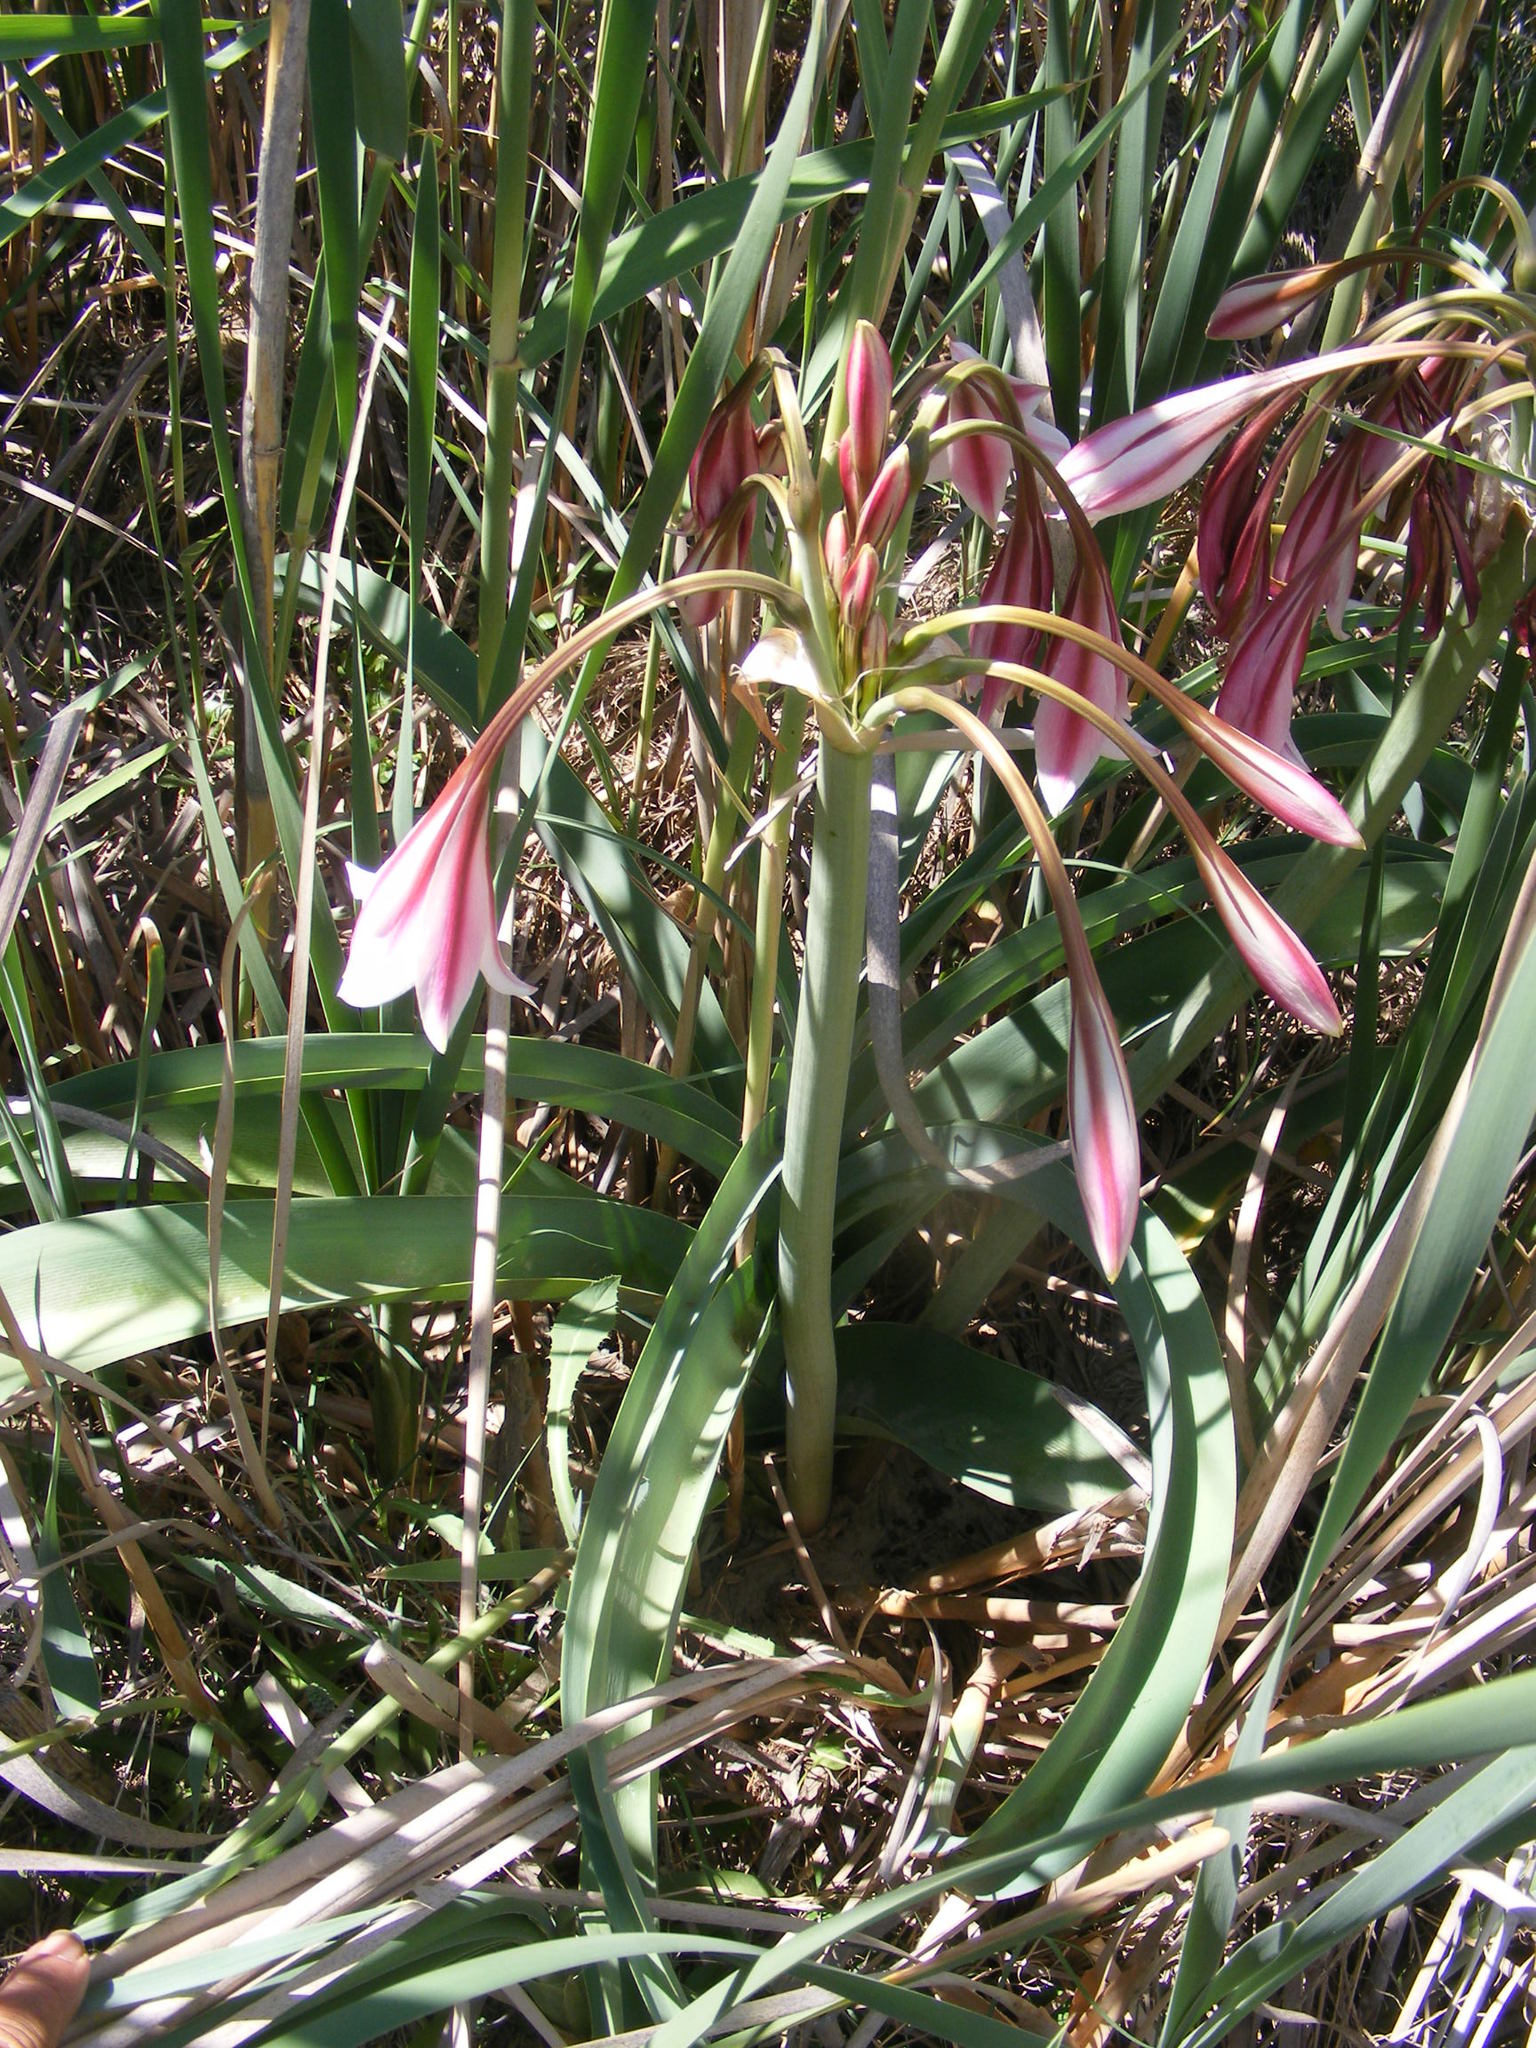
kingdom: Plantae
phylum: Tracheophyta
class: Liliopsida
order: Asparagales
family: Amaryllidaceae
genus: Crinum
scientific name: Crinum bulbispermum
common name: Hardy swamplily
